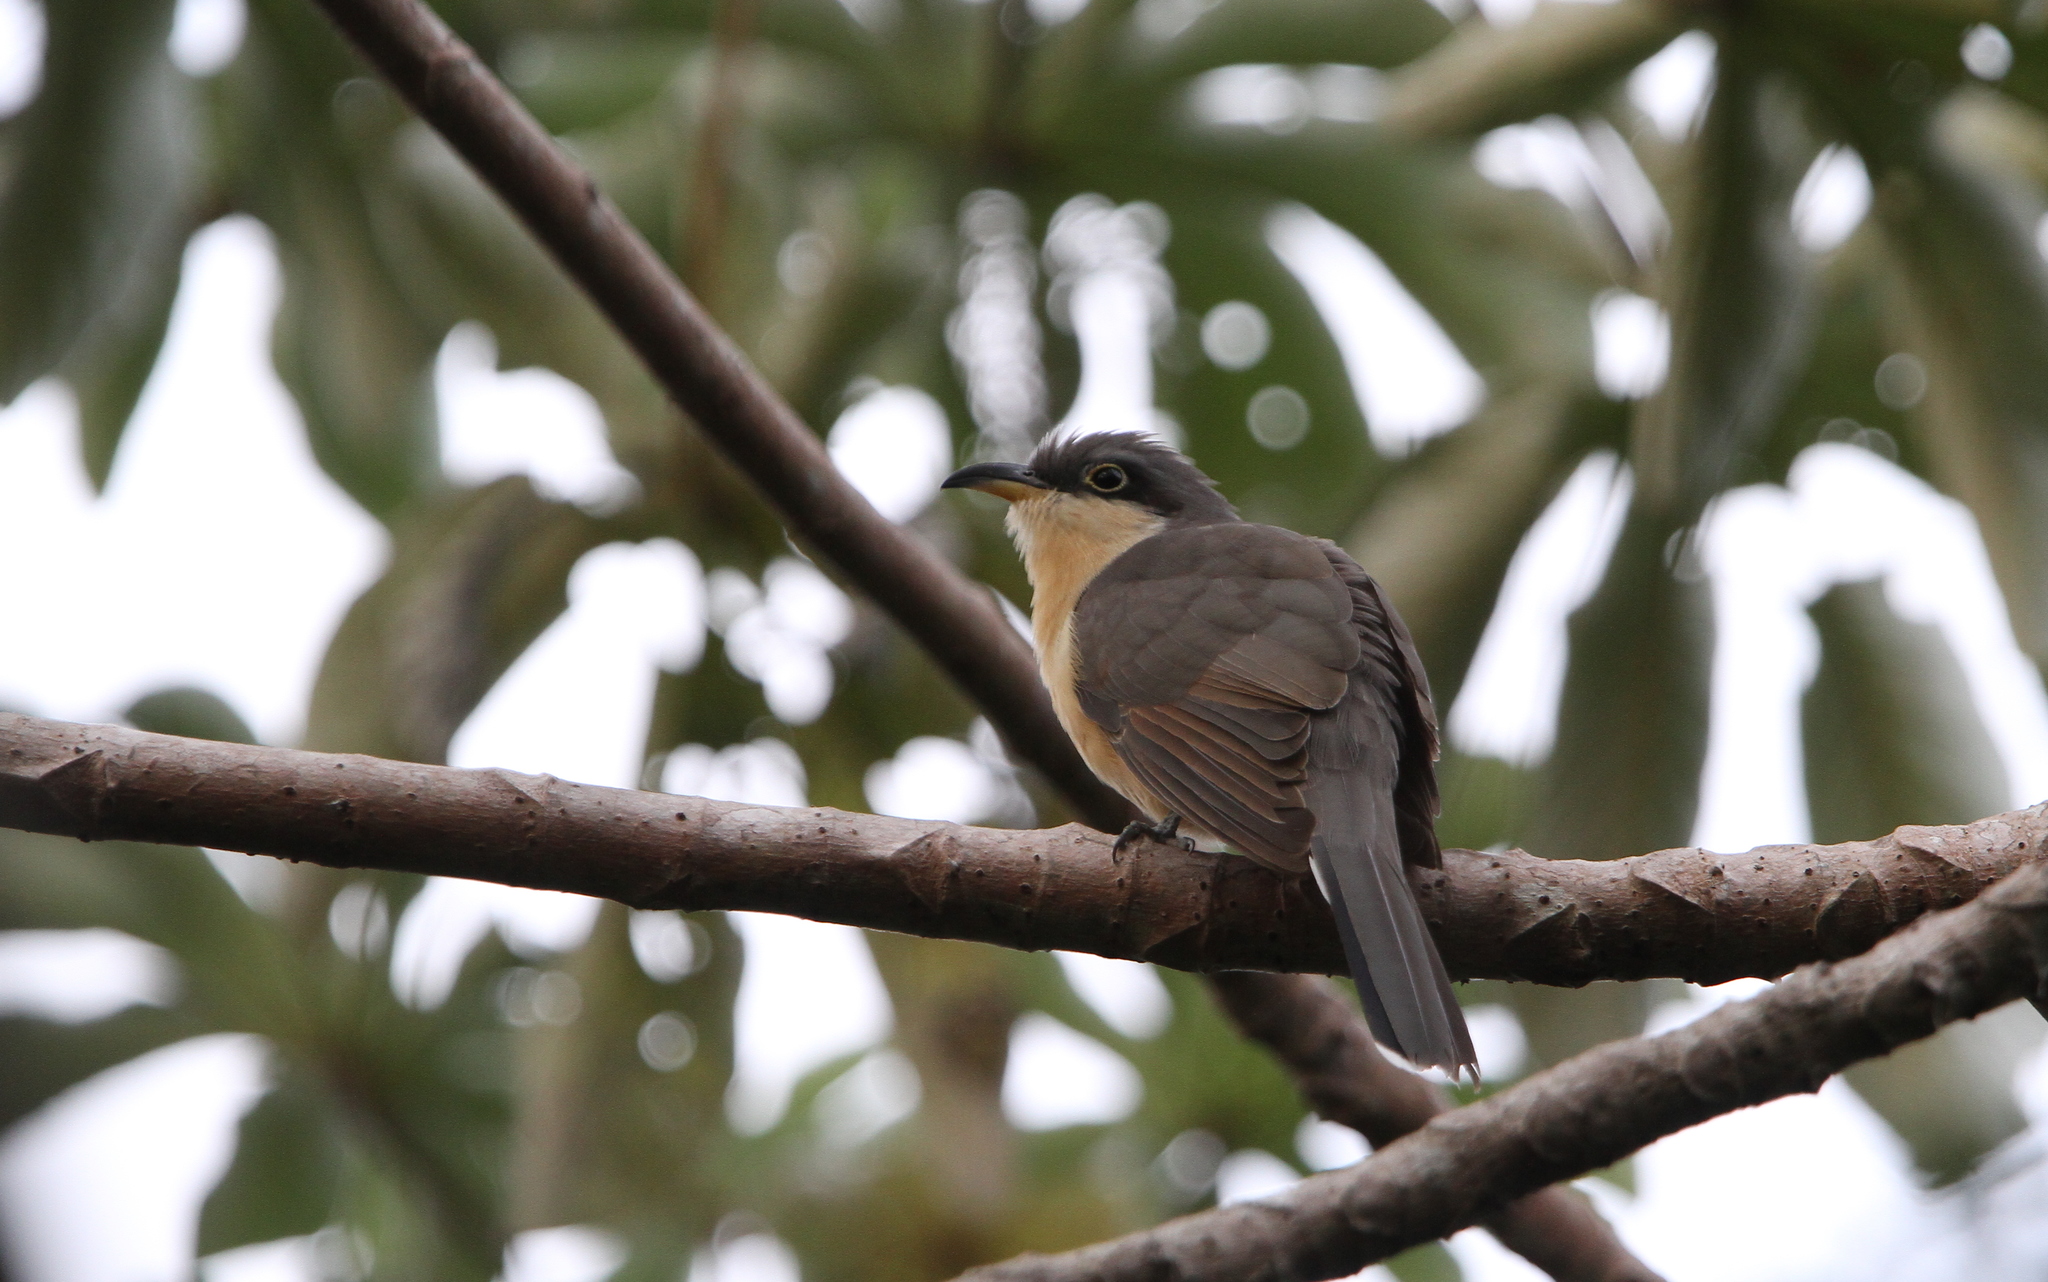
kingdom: Animalia
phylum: Chordata
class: Aves
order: Cuculiformes
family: Cuculidae
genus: Coccyzus
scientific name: Coccyzus minor
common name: Mangrove cuckoo
